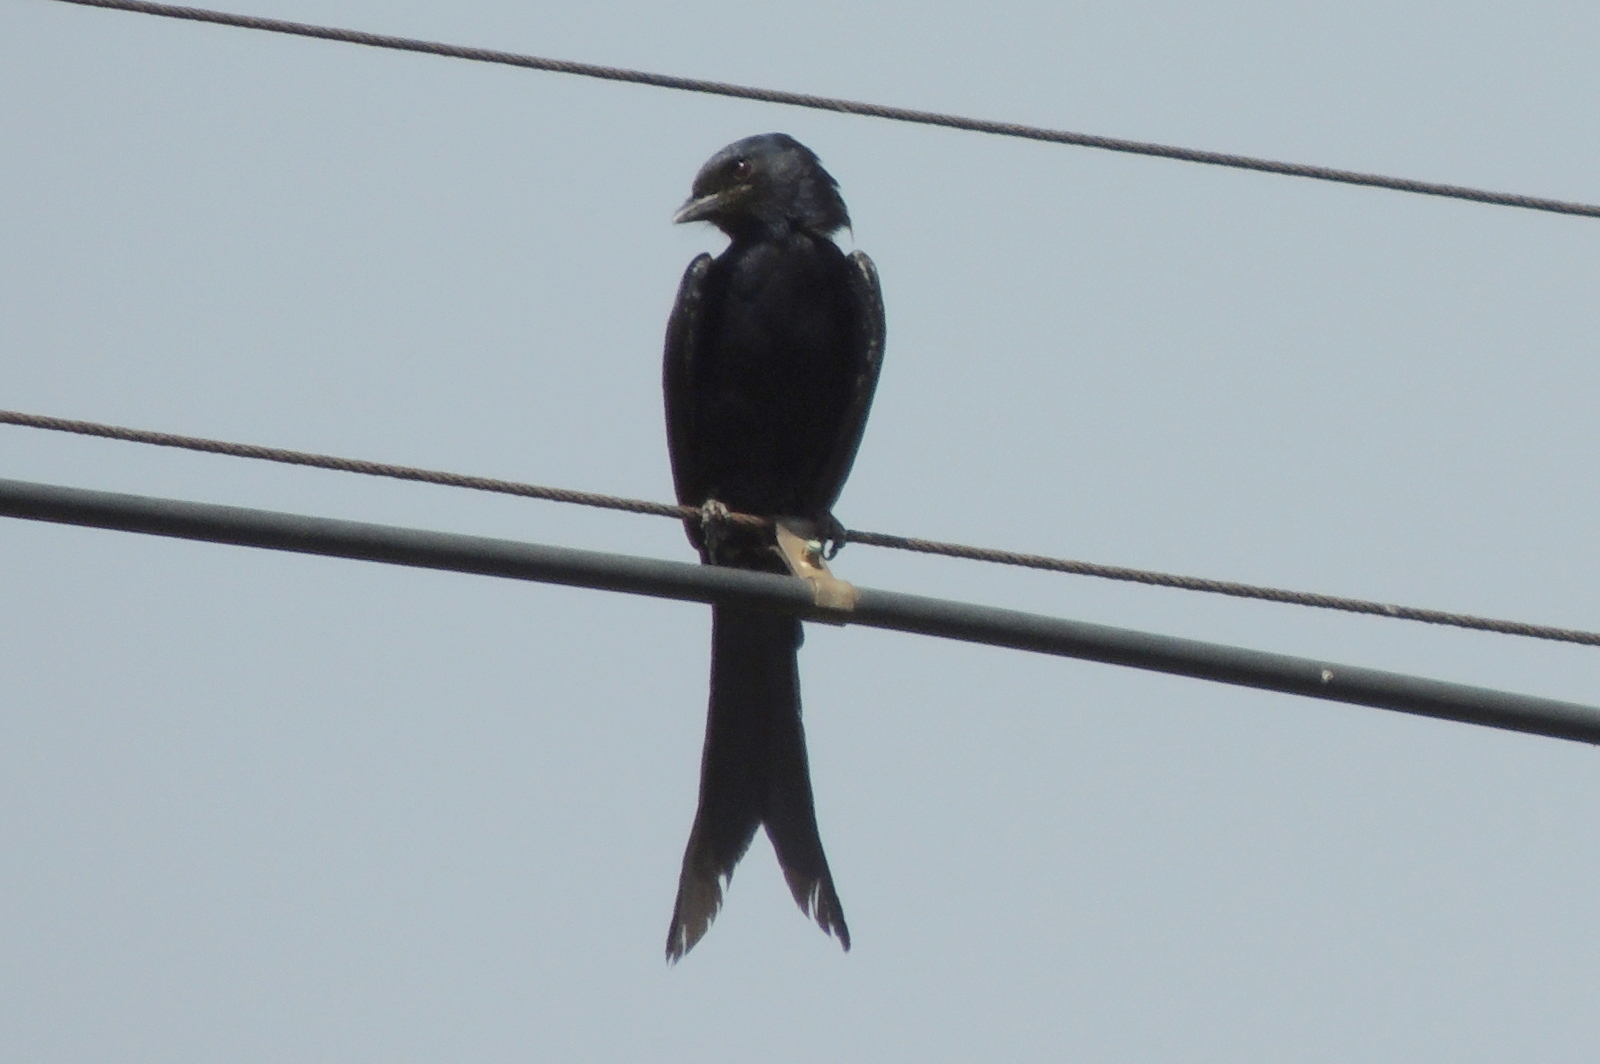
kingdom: Animalia
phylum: Chordata
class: Aves
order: Passeriformes
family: Dicruridae
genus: Dicrurus
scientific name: Dicrurus macrocercus
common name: Black drongo
